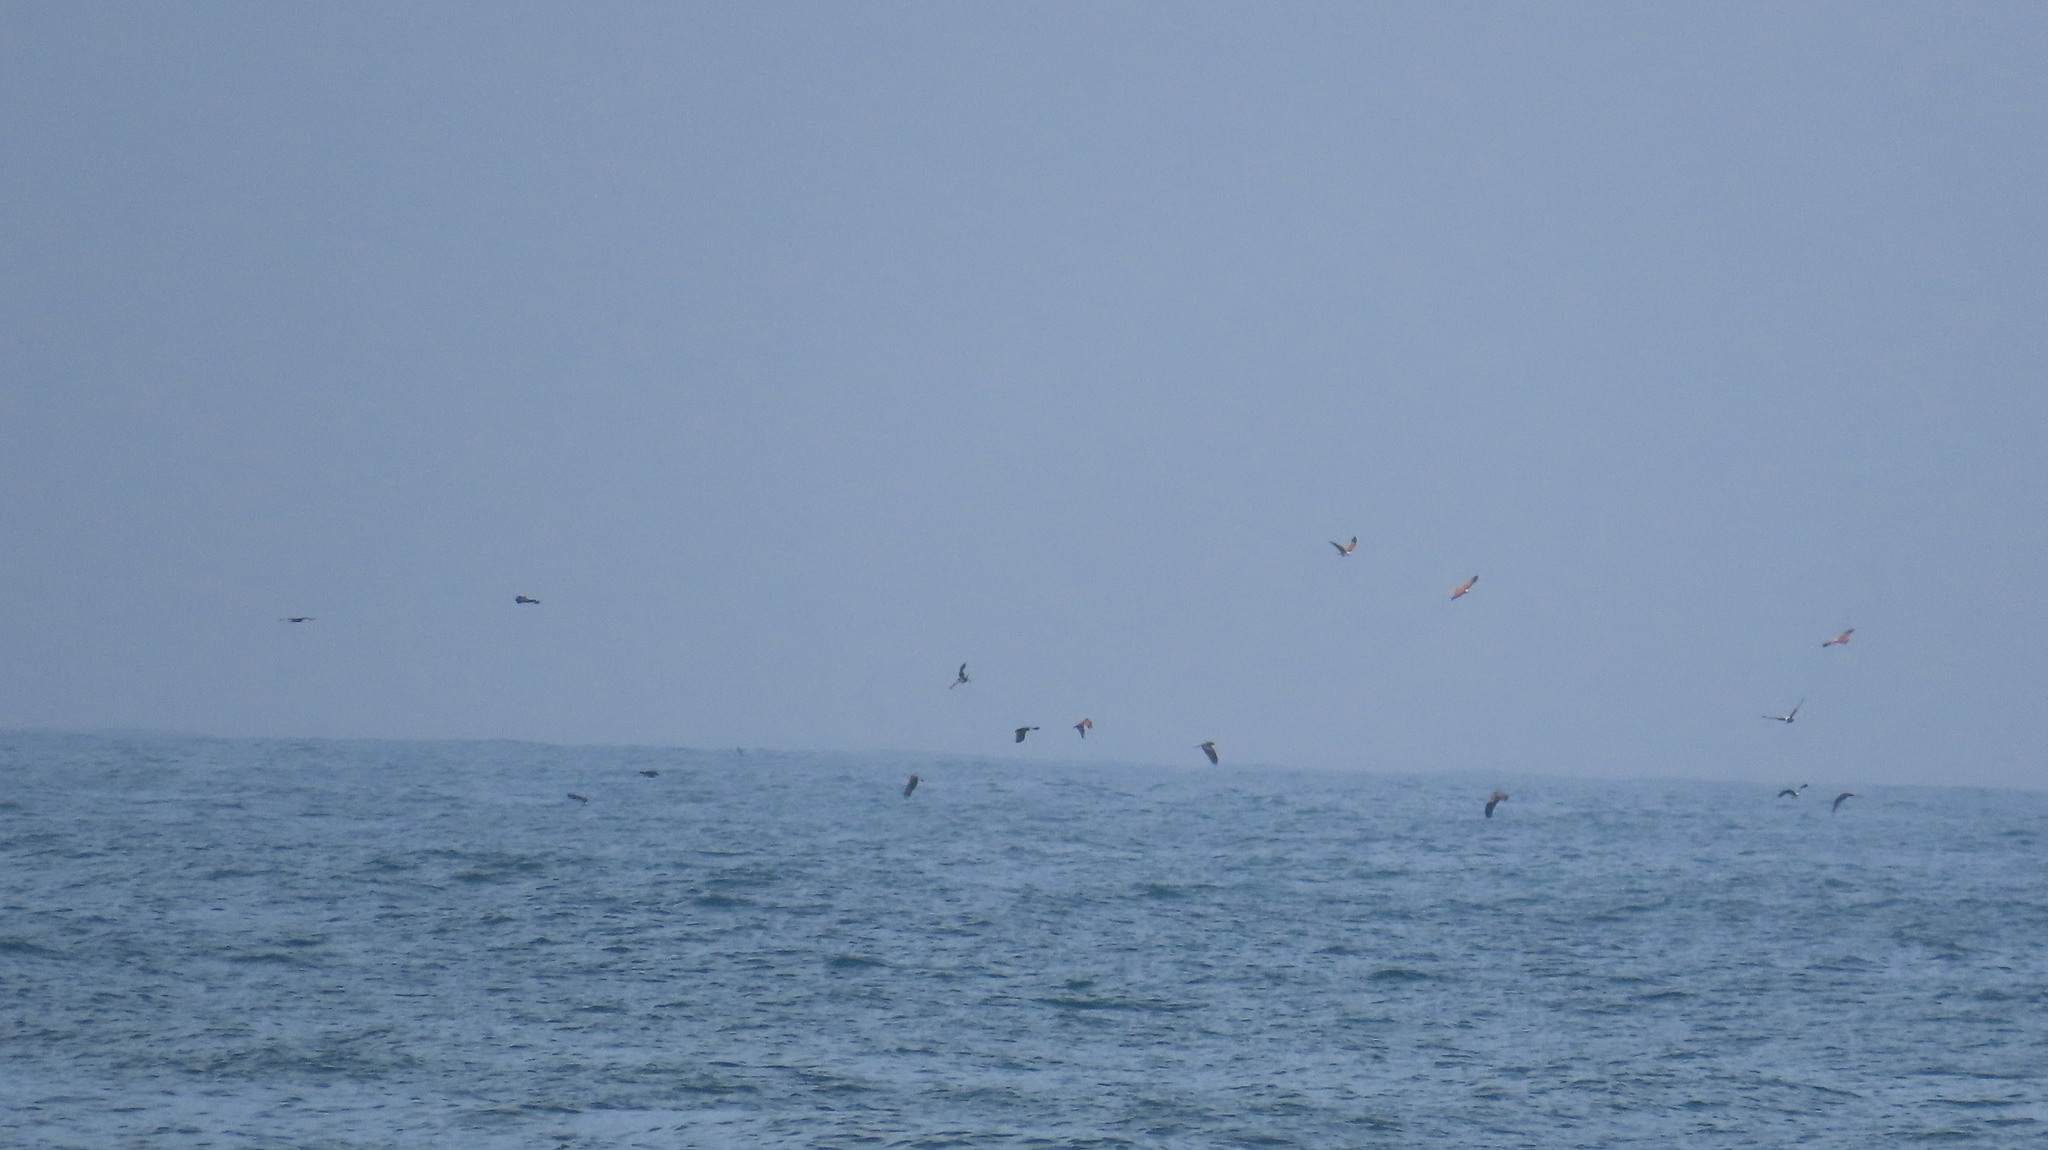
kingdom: Animalia
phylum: Chordata
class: Aves
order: Accipitriformes
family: Accipitridae
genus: Haliastur
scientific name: Haliastur indus
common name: Brahminy kite
